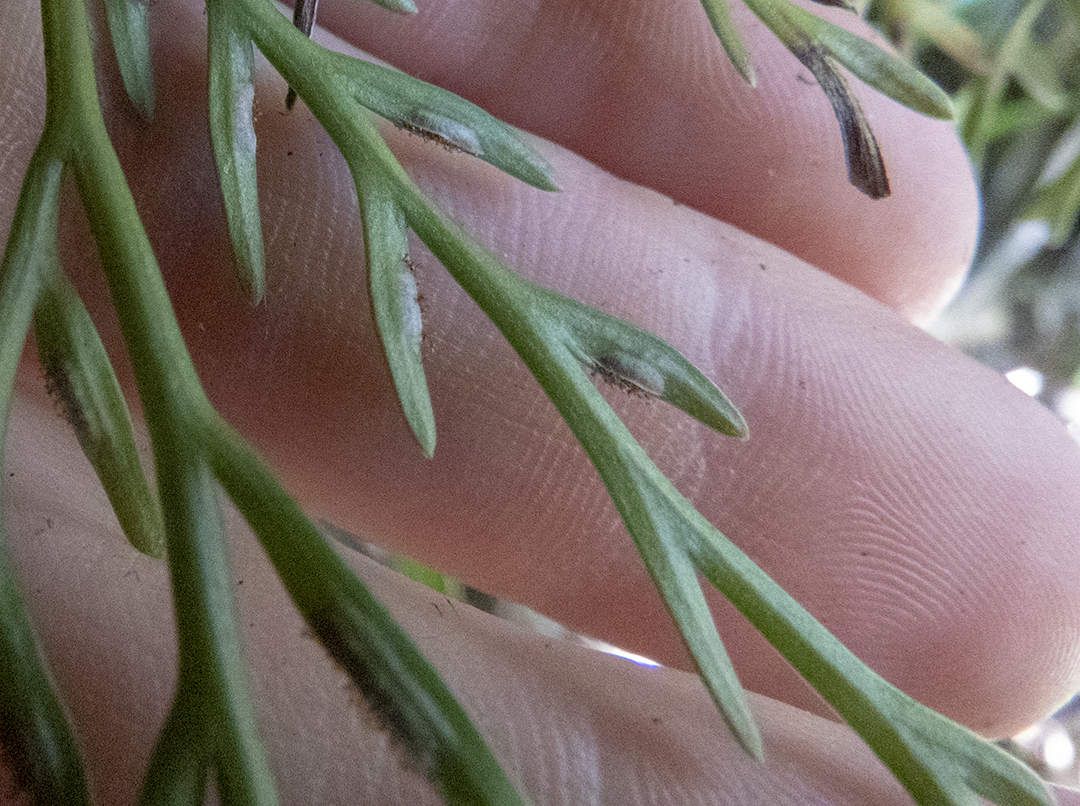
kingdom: Plantae
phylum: Tracheophyta
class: Polypodiopsida
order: Polypodiales
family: Aspleniaceae
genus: Asplenium
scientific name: Asplenium flaccidum
